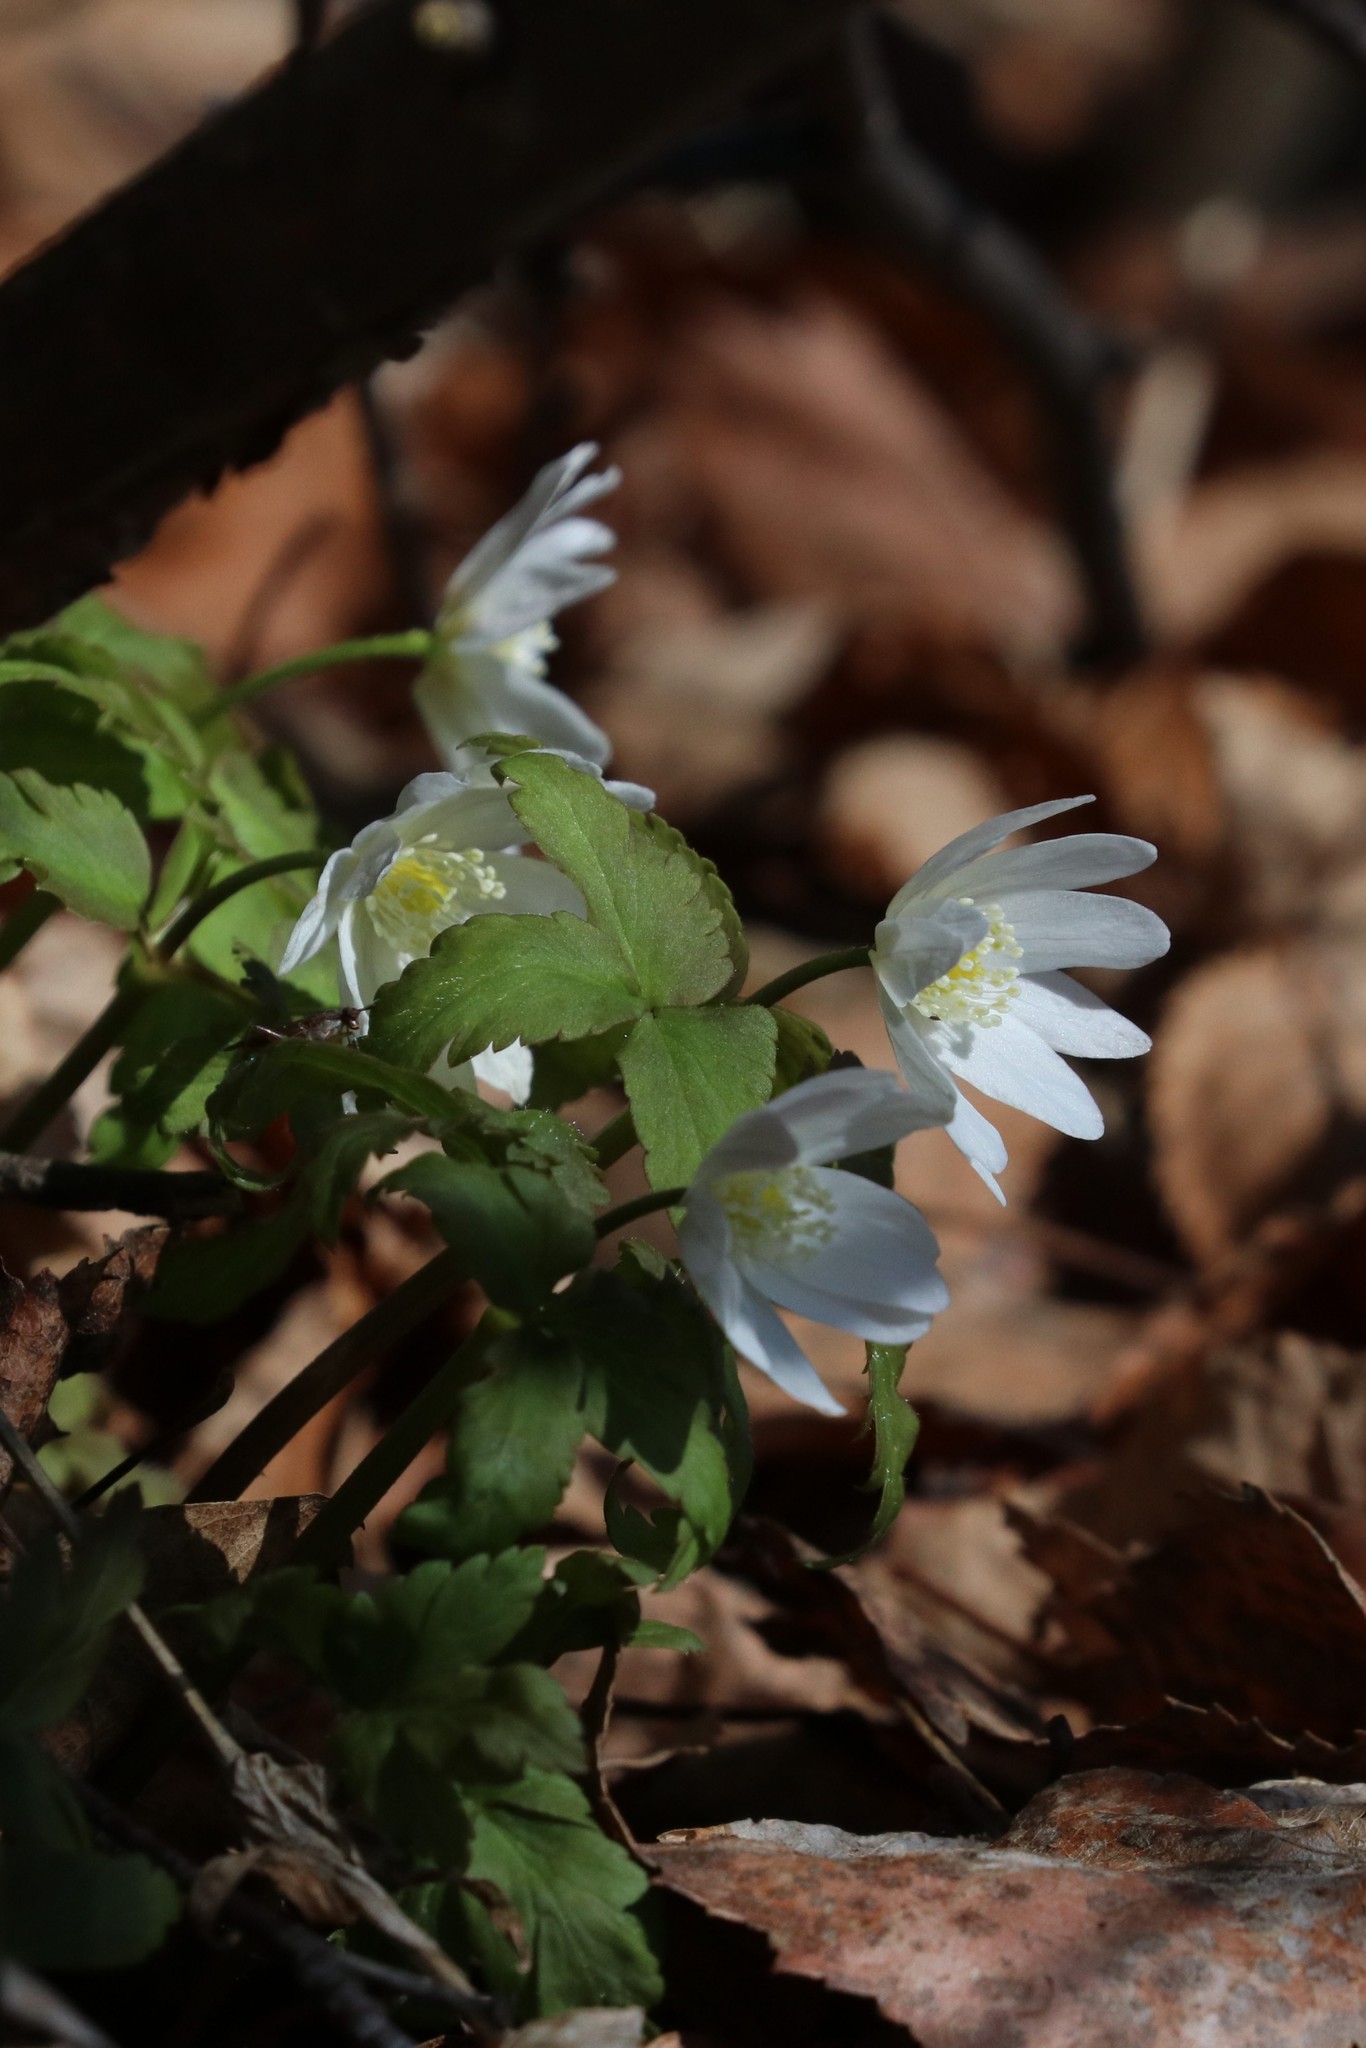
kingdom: Plantae
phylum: Tracheophyta
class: Magnoliopsida
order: Ranunculales
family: Ranunculaceae
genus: Anemone
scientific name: Anemone altaica
